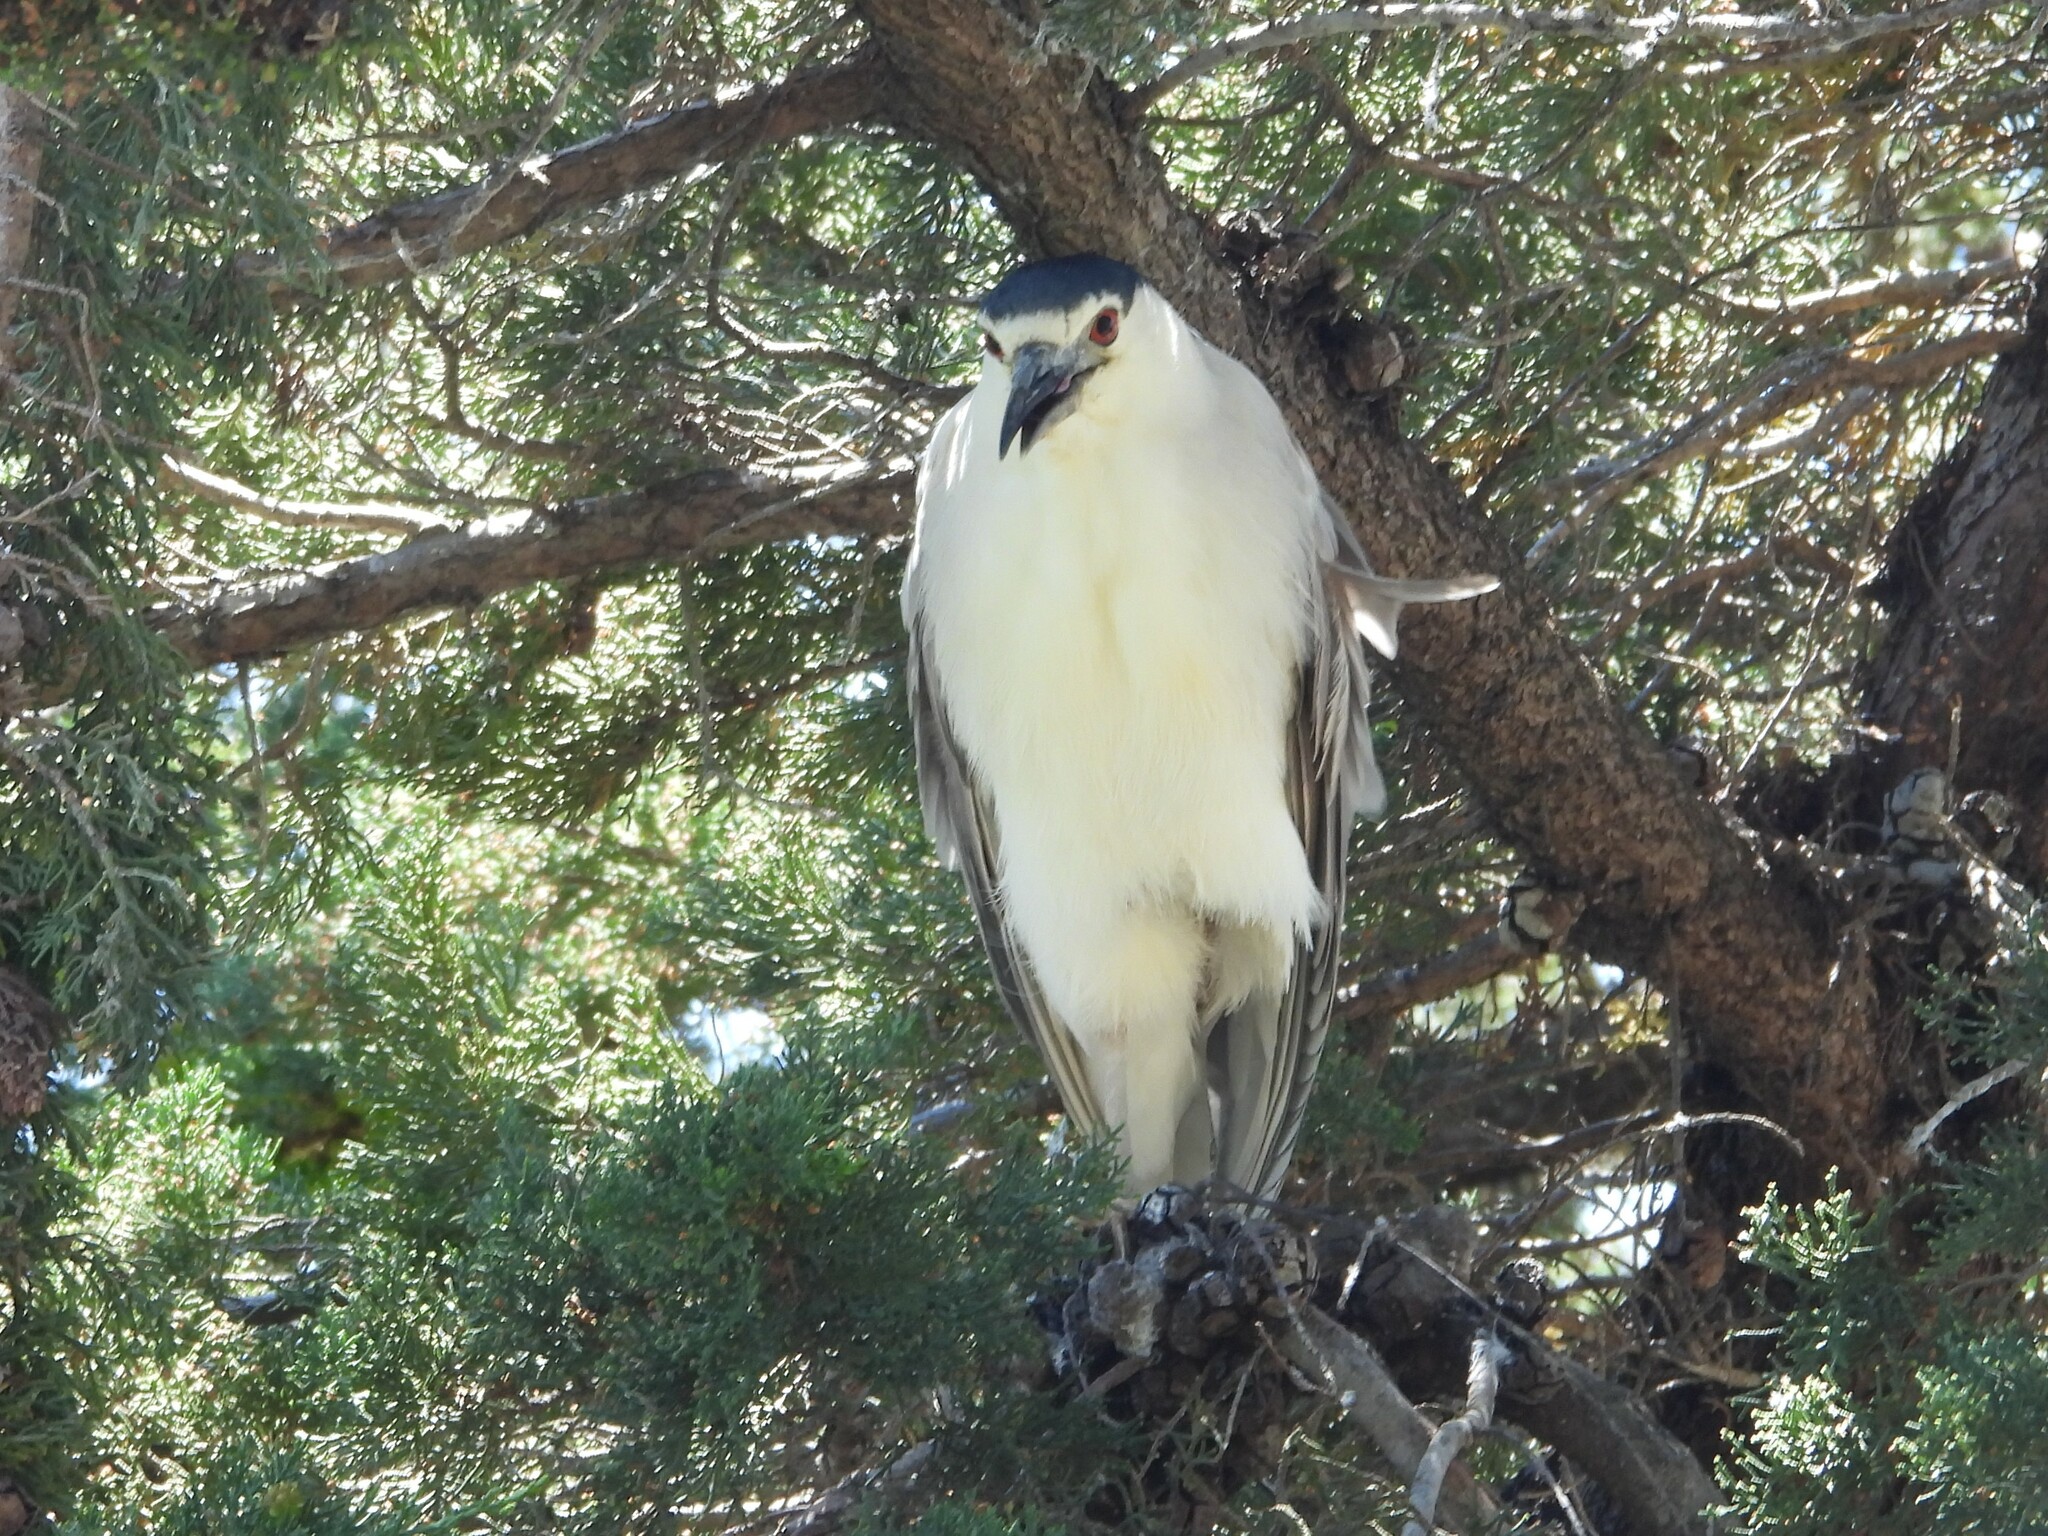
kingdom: Animalia
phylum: Chordata
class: Aves
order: Pelecaniformes
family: Ardeidae
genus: Nycticorax
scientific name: Nycticorax nycticorax
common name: Black-crowned night heron
